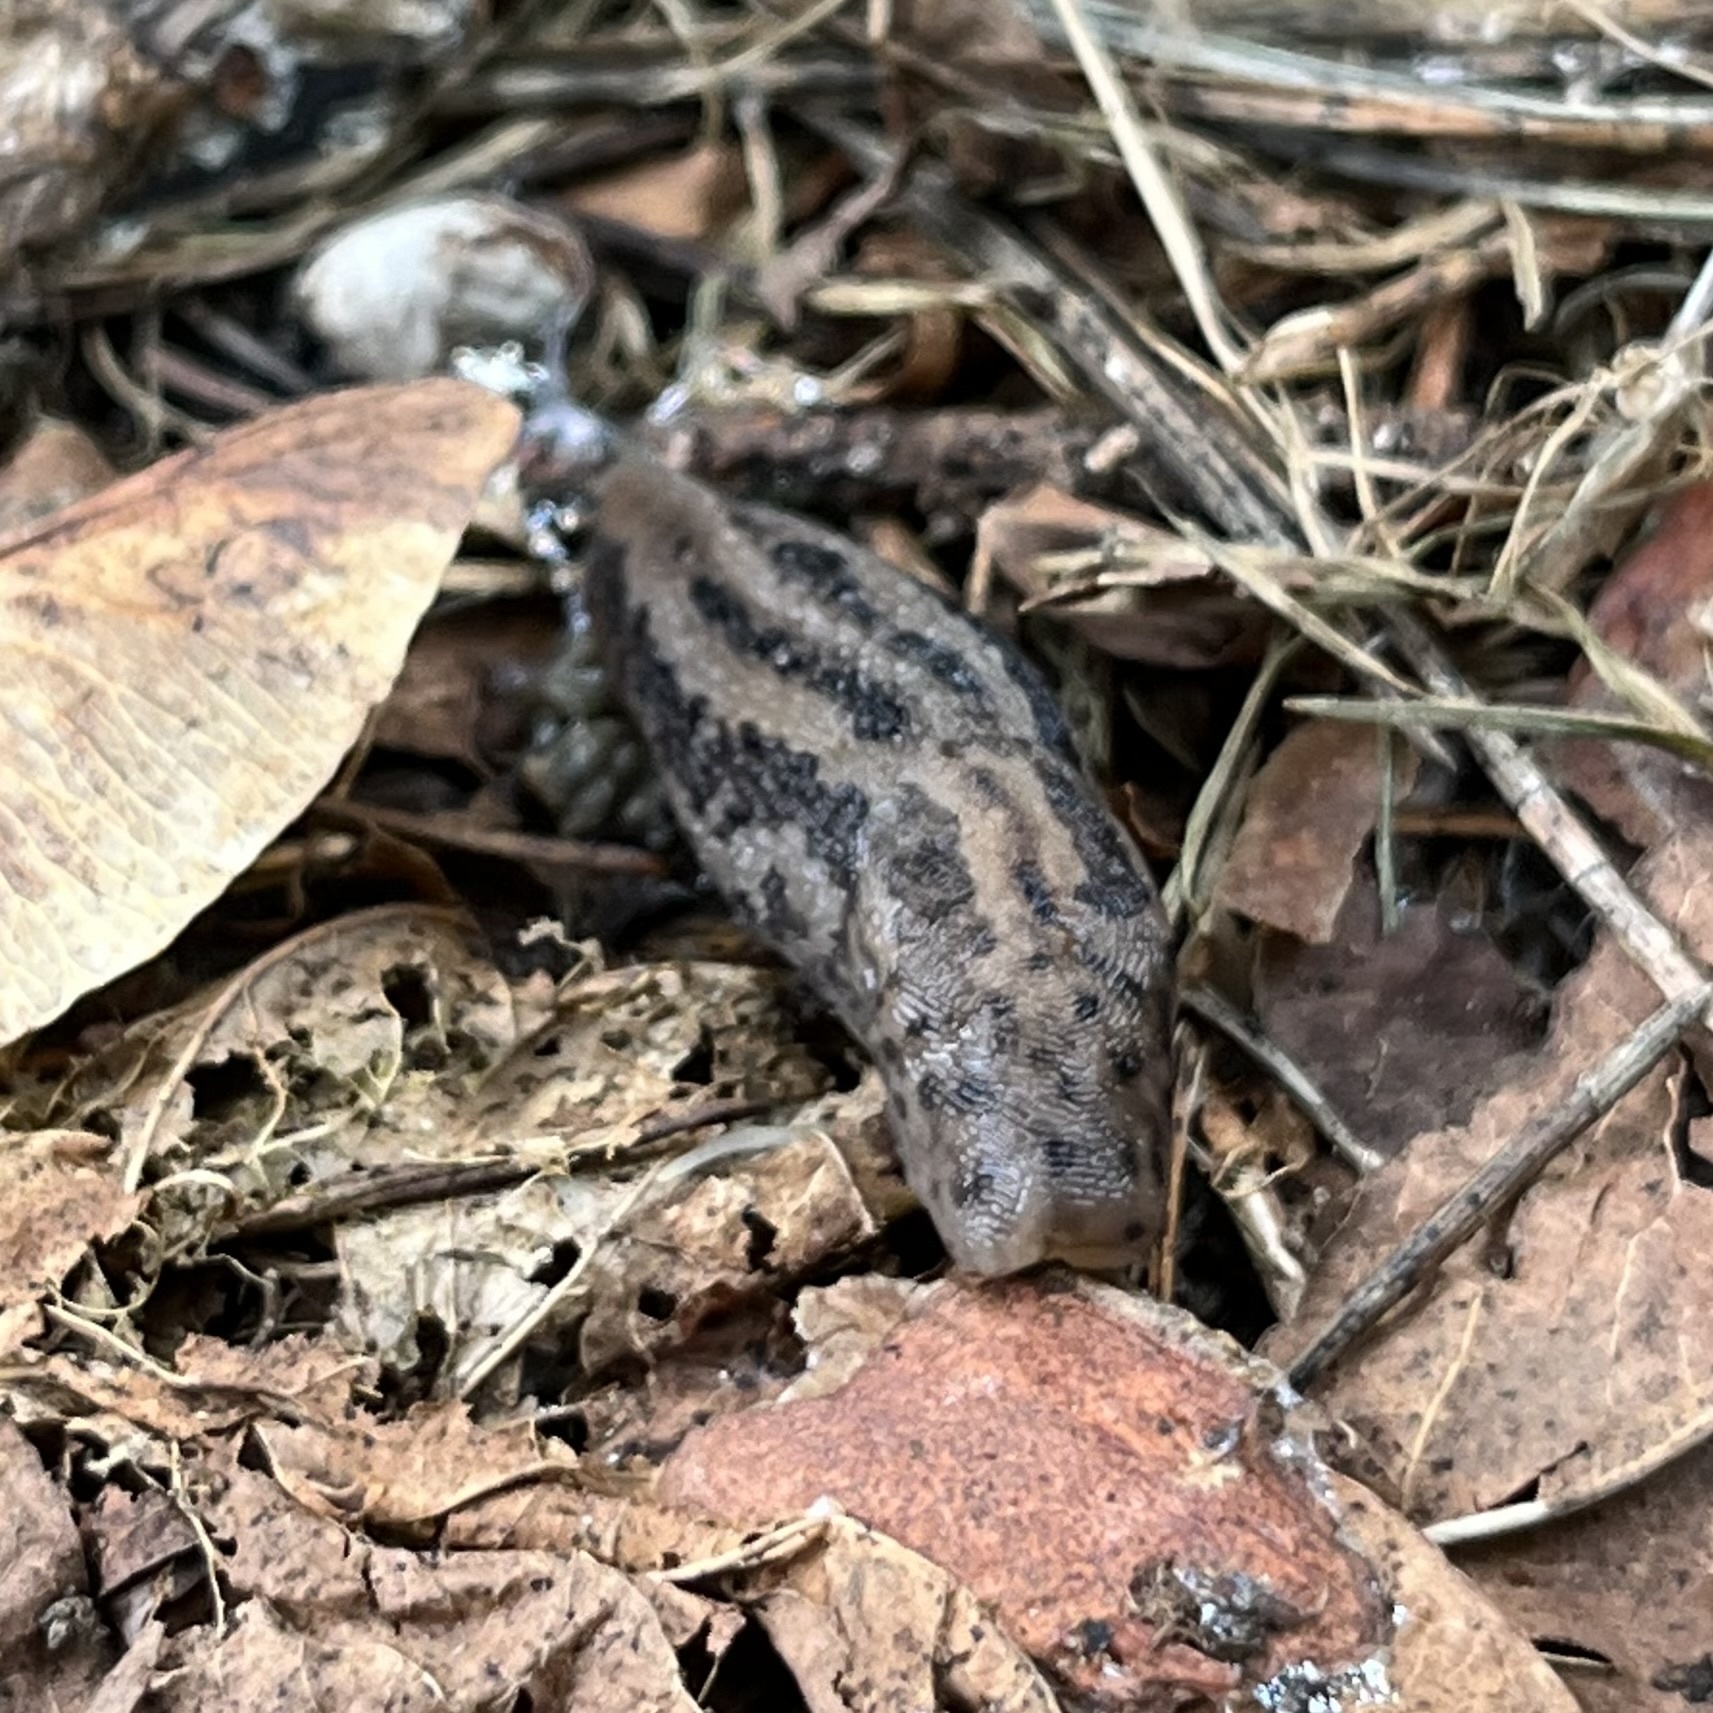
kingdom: Animalia
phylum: Mollusca
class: Gastropoda
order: Stylommatophora
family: Limacidae
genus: Limax
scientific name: Limax maximus
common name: Great grey slug
